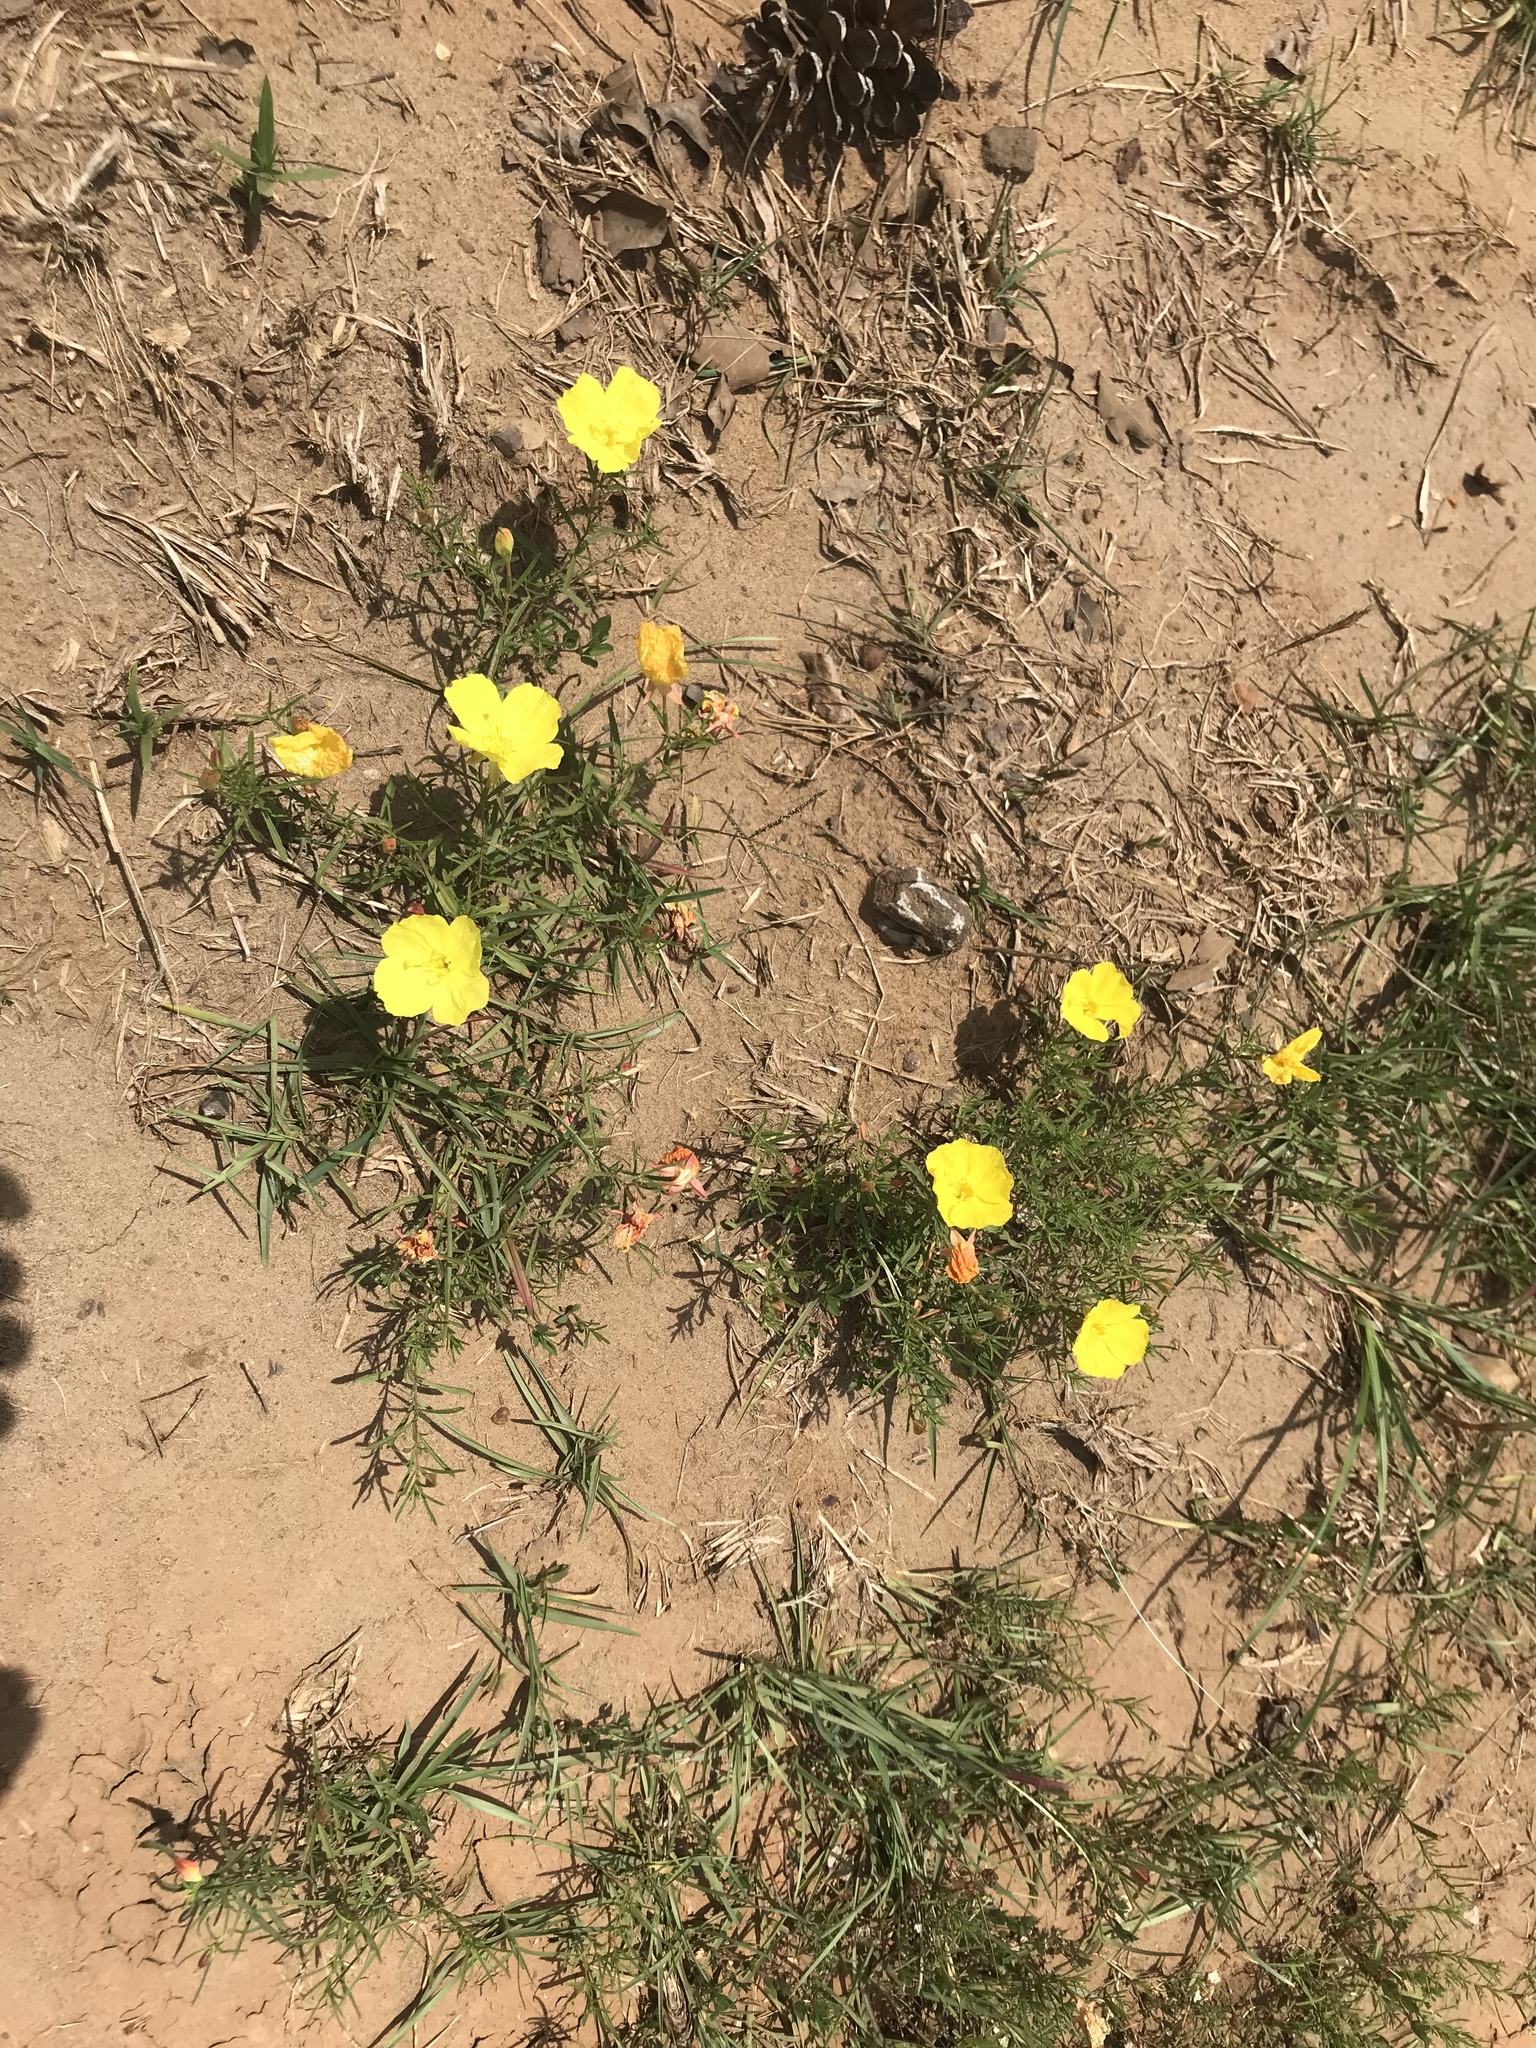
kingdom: Plantae
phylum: Tracheophyta
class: Magnoliopsida
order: Myrtales
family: Onagraceae
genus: Oenothera
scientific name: Oenothera
